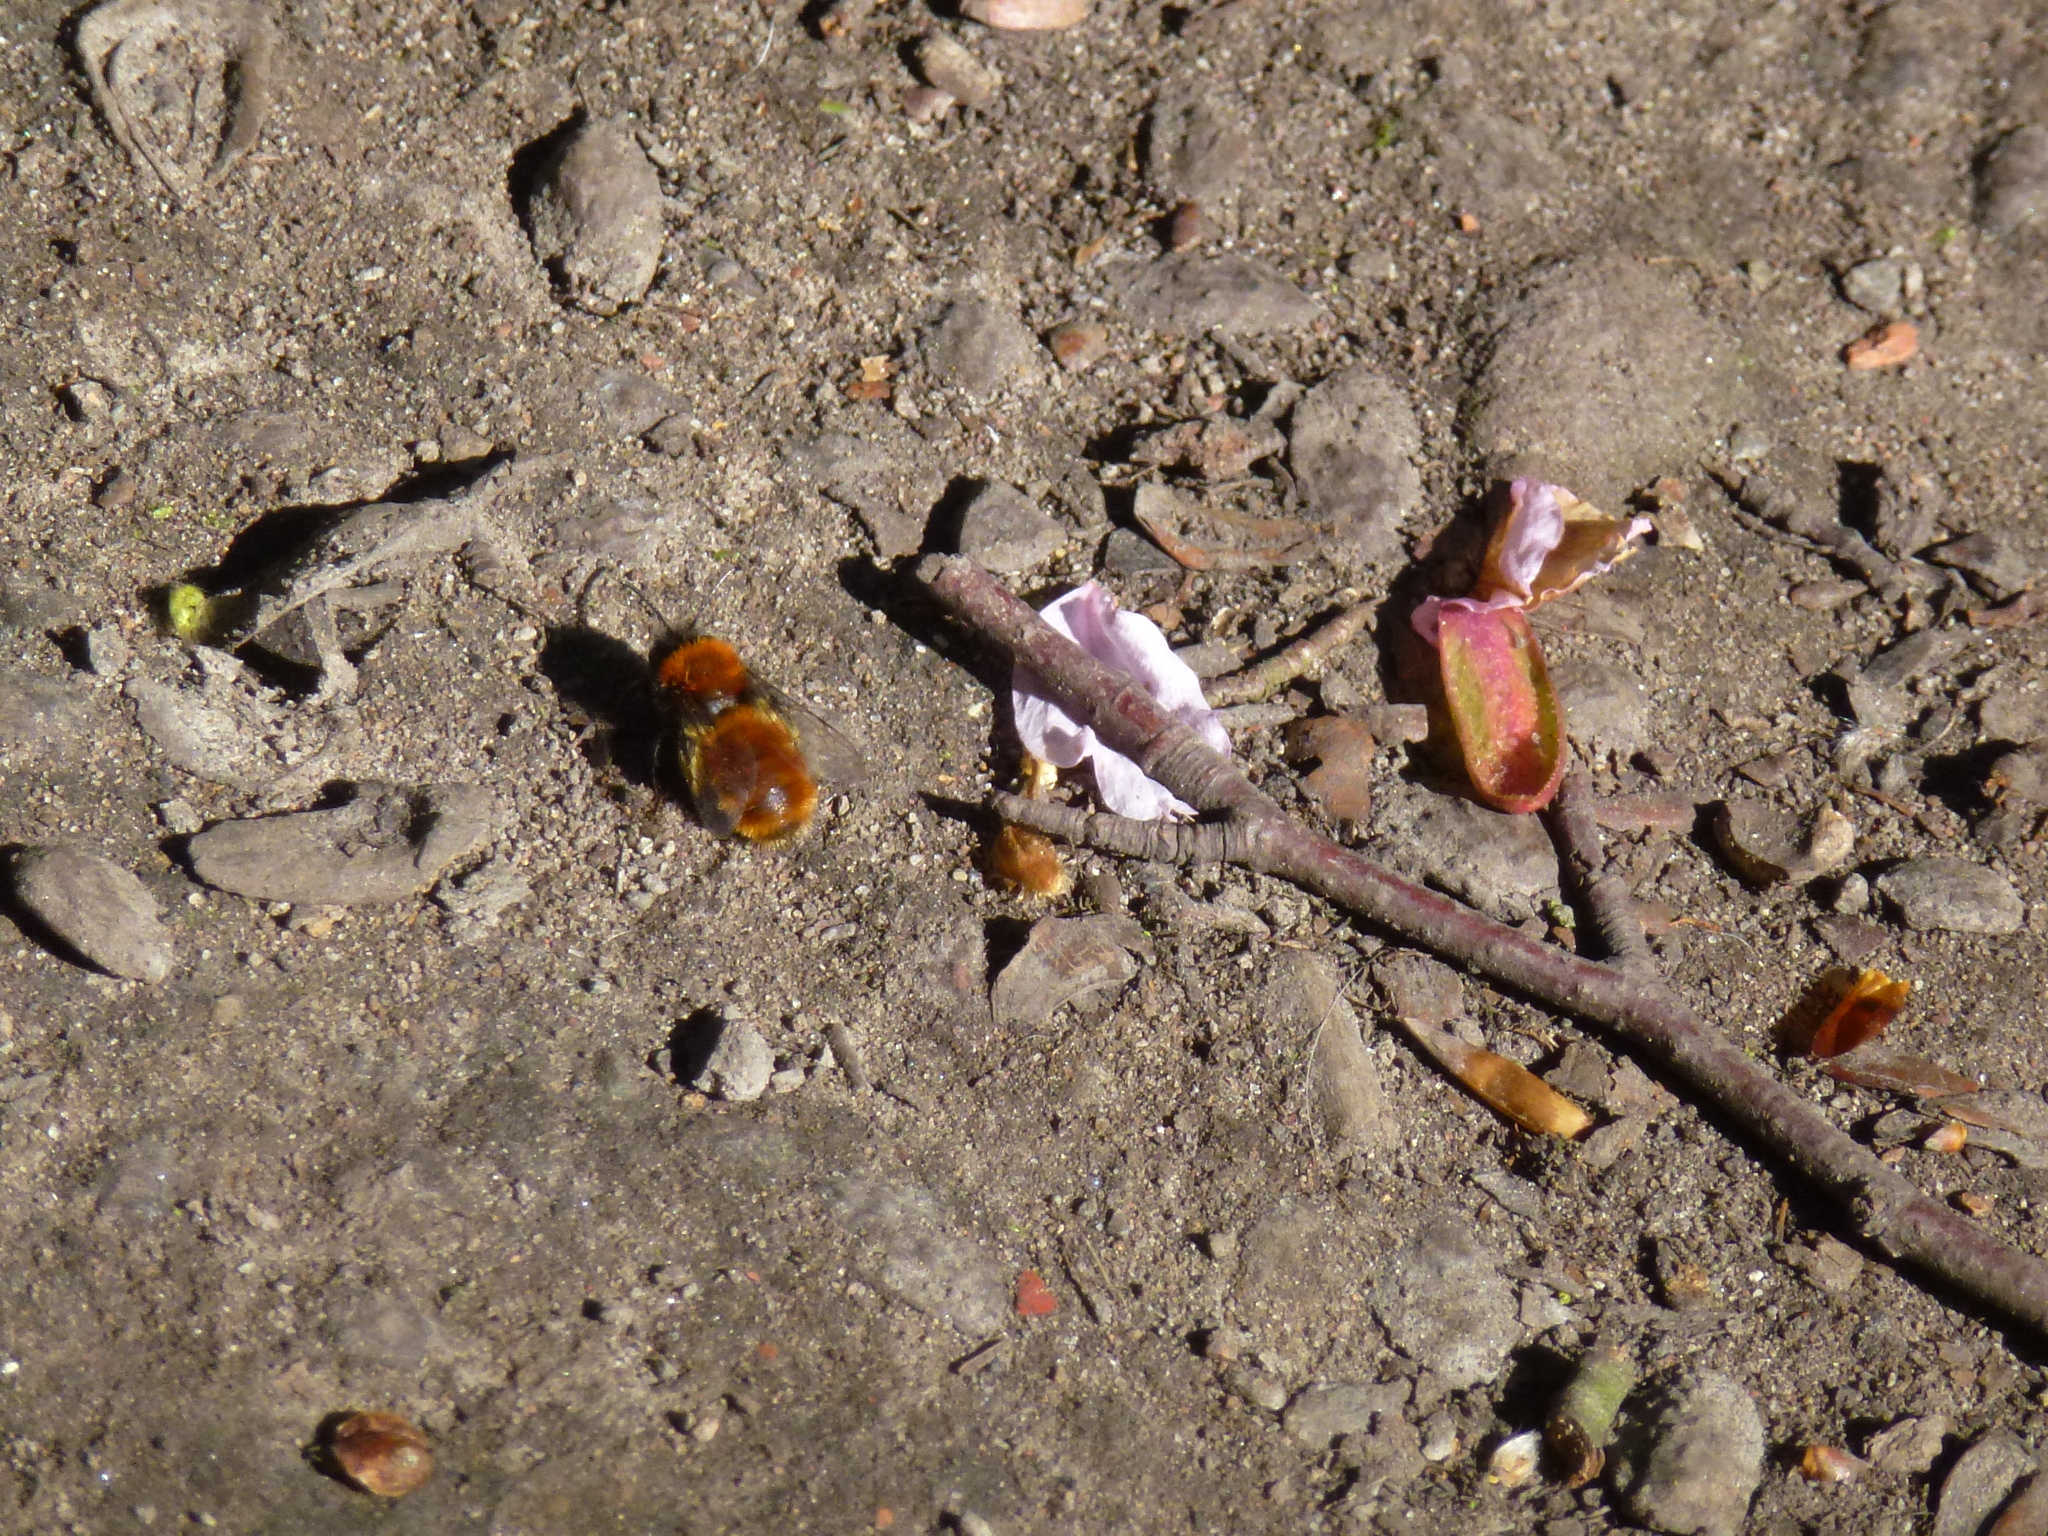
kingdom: Animalia
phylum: Arthropoda
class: Insecta
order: Hymenoptera
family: Andrenidae
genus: Andrena
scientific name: Andrena fulva
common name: Tawny mining bee
